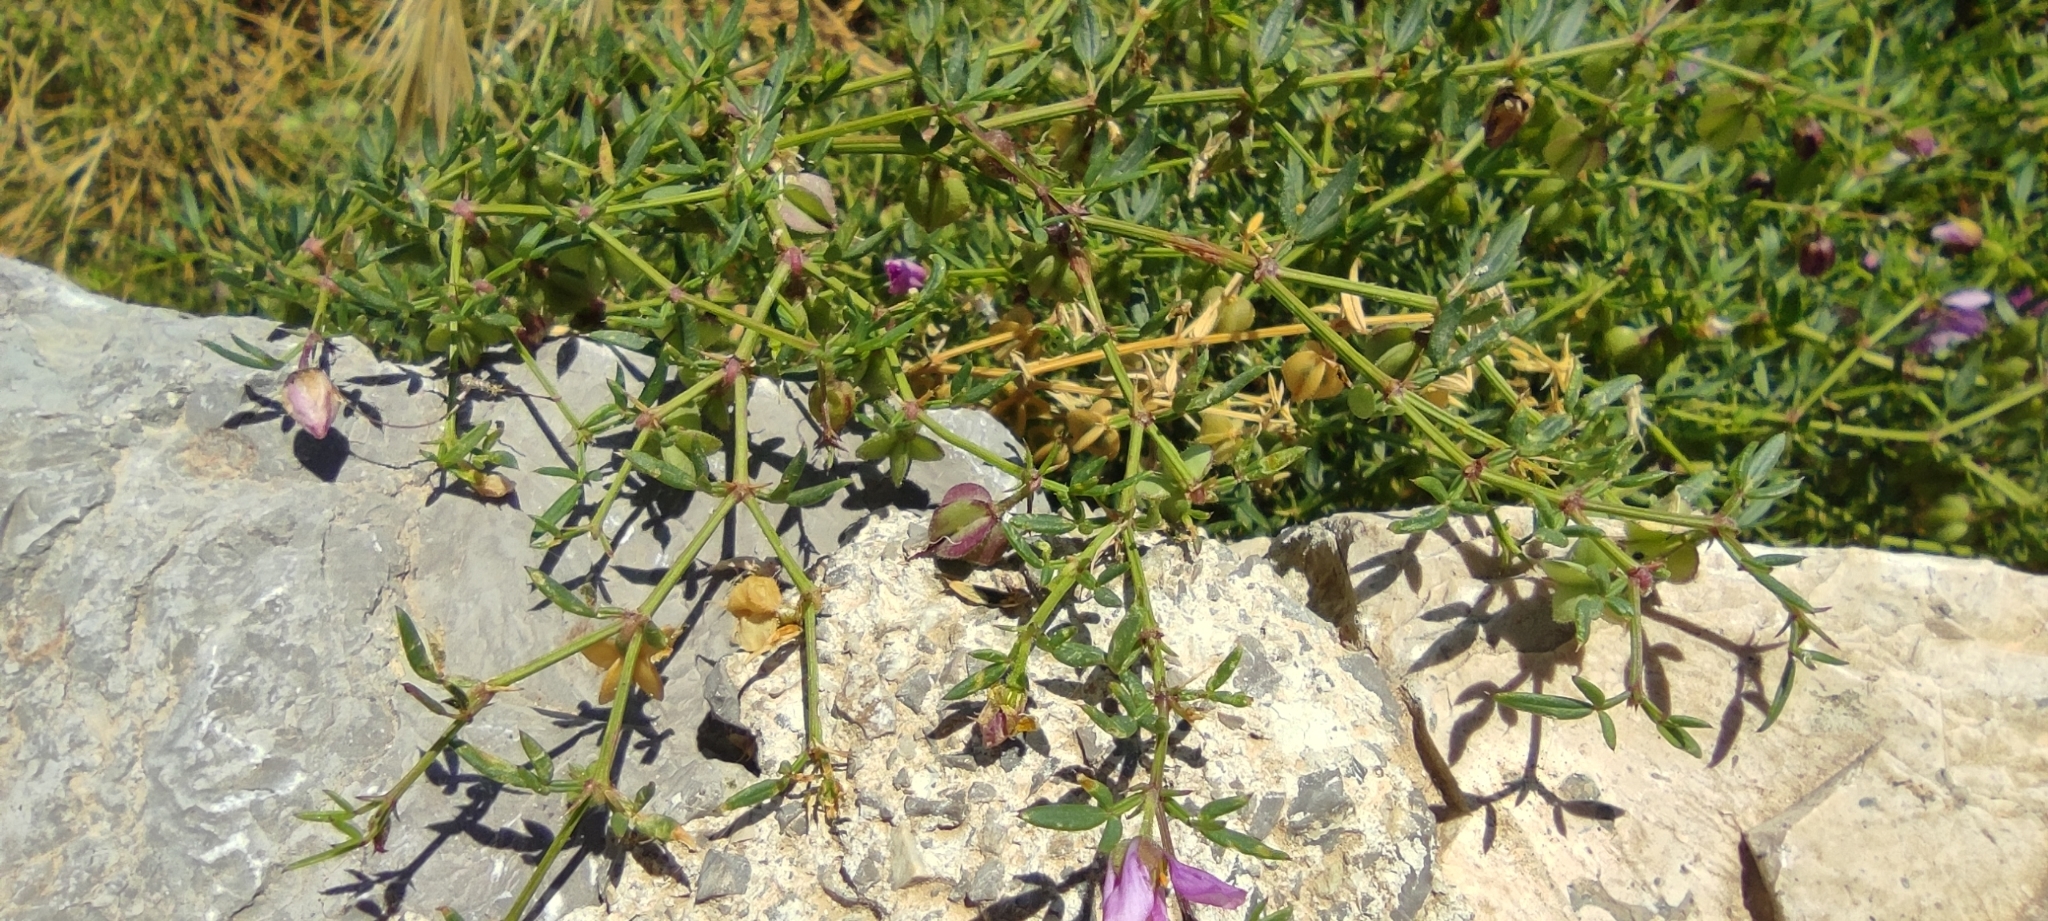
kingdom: Plantae
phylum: Tracheophyta
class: Magnoliopsida
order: Zygophyllales
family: Zygophyllaceae
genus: Fagonia
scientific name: Fagonia cretica
